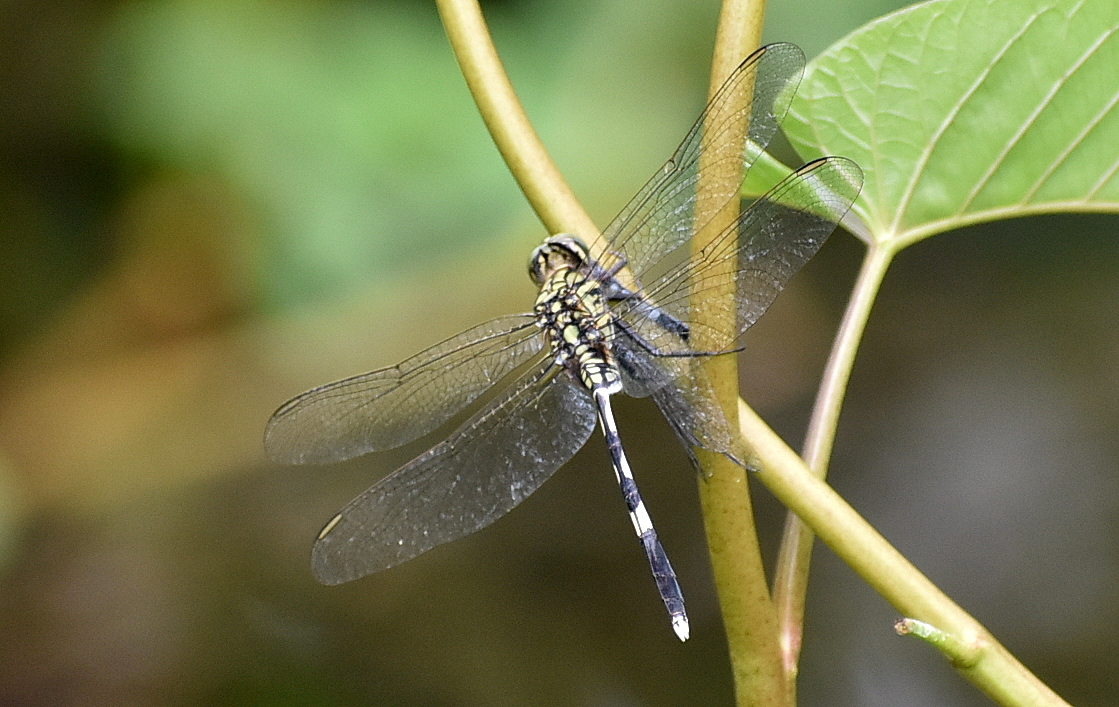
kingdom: Animalia
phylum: Arthropoda
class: Insecta
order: Odonata
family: Libellulidae
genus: Orthetrum
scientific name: Orthetrum sabina
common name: Slender skimmer
